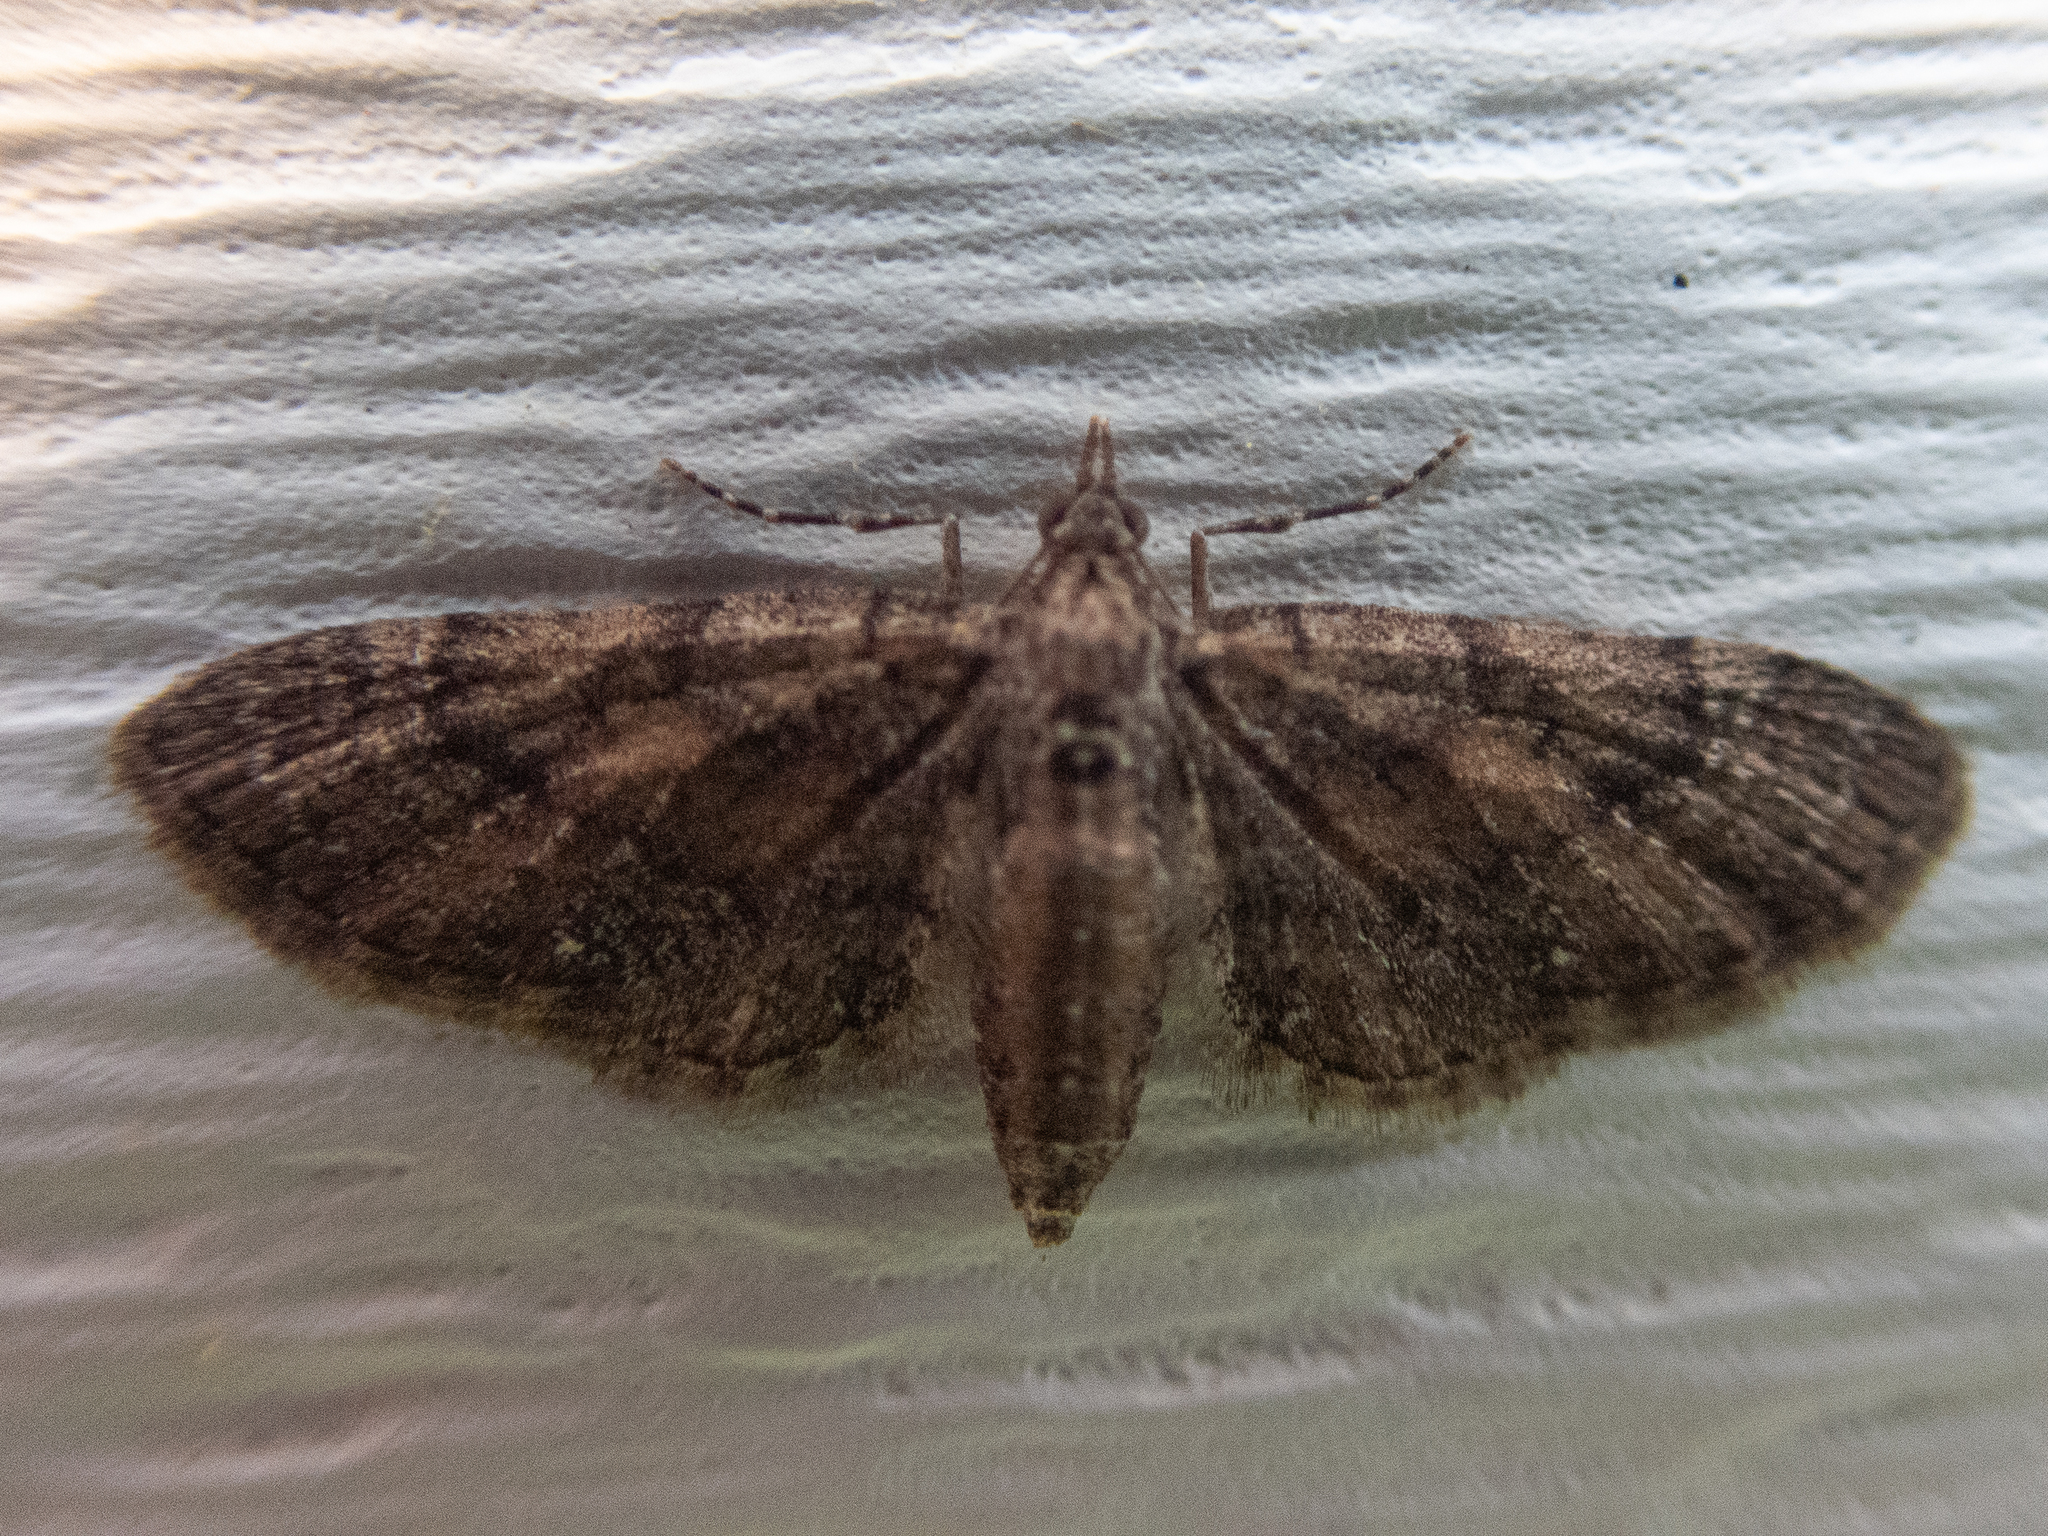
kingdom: Animalia
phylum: Arthropoda
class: Insecta
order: Lepidoptera
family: Geometridae
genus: Eupithecia
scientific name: Eupithecia palpata
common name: Small pine looper
